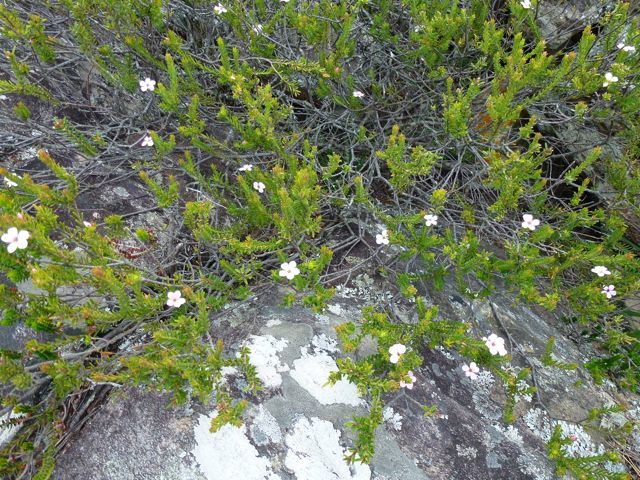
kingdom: Plantae
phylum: Tracheophyta
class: Magnoliopsida
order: Sapindales
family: Rutaceae
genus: Acmadenia
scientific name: Acmadenia rupicola
